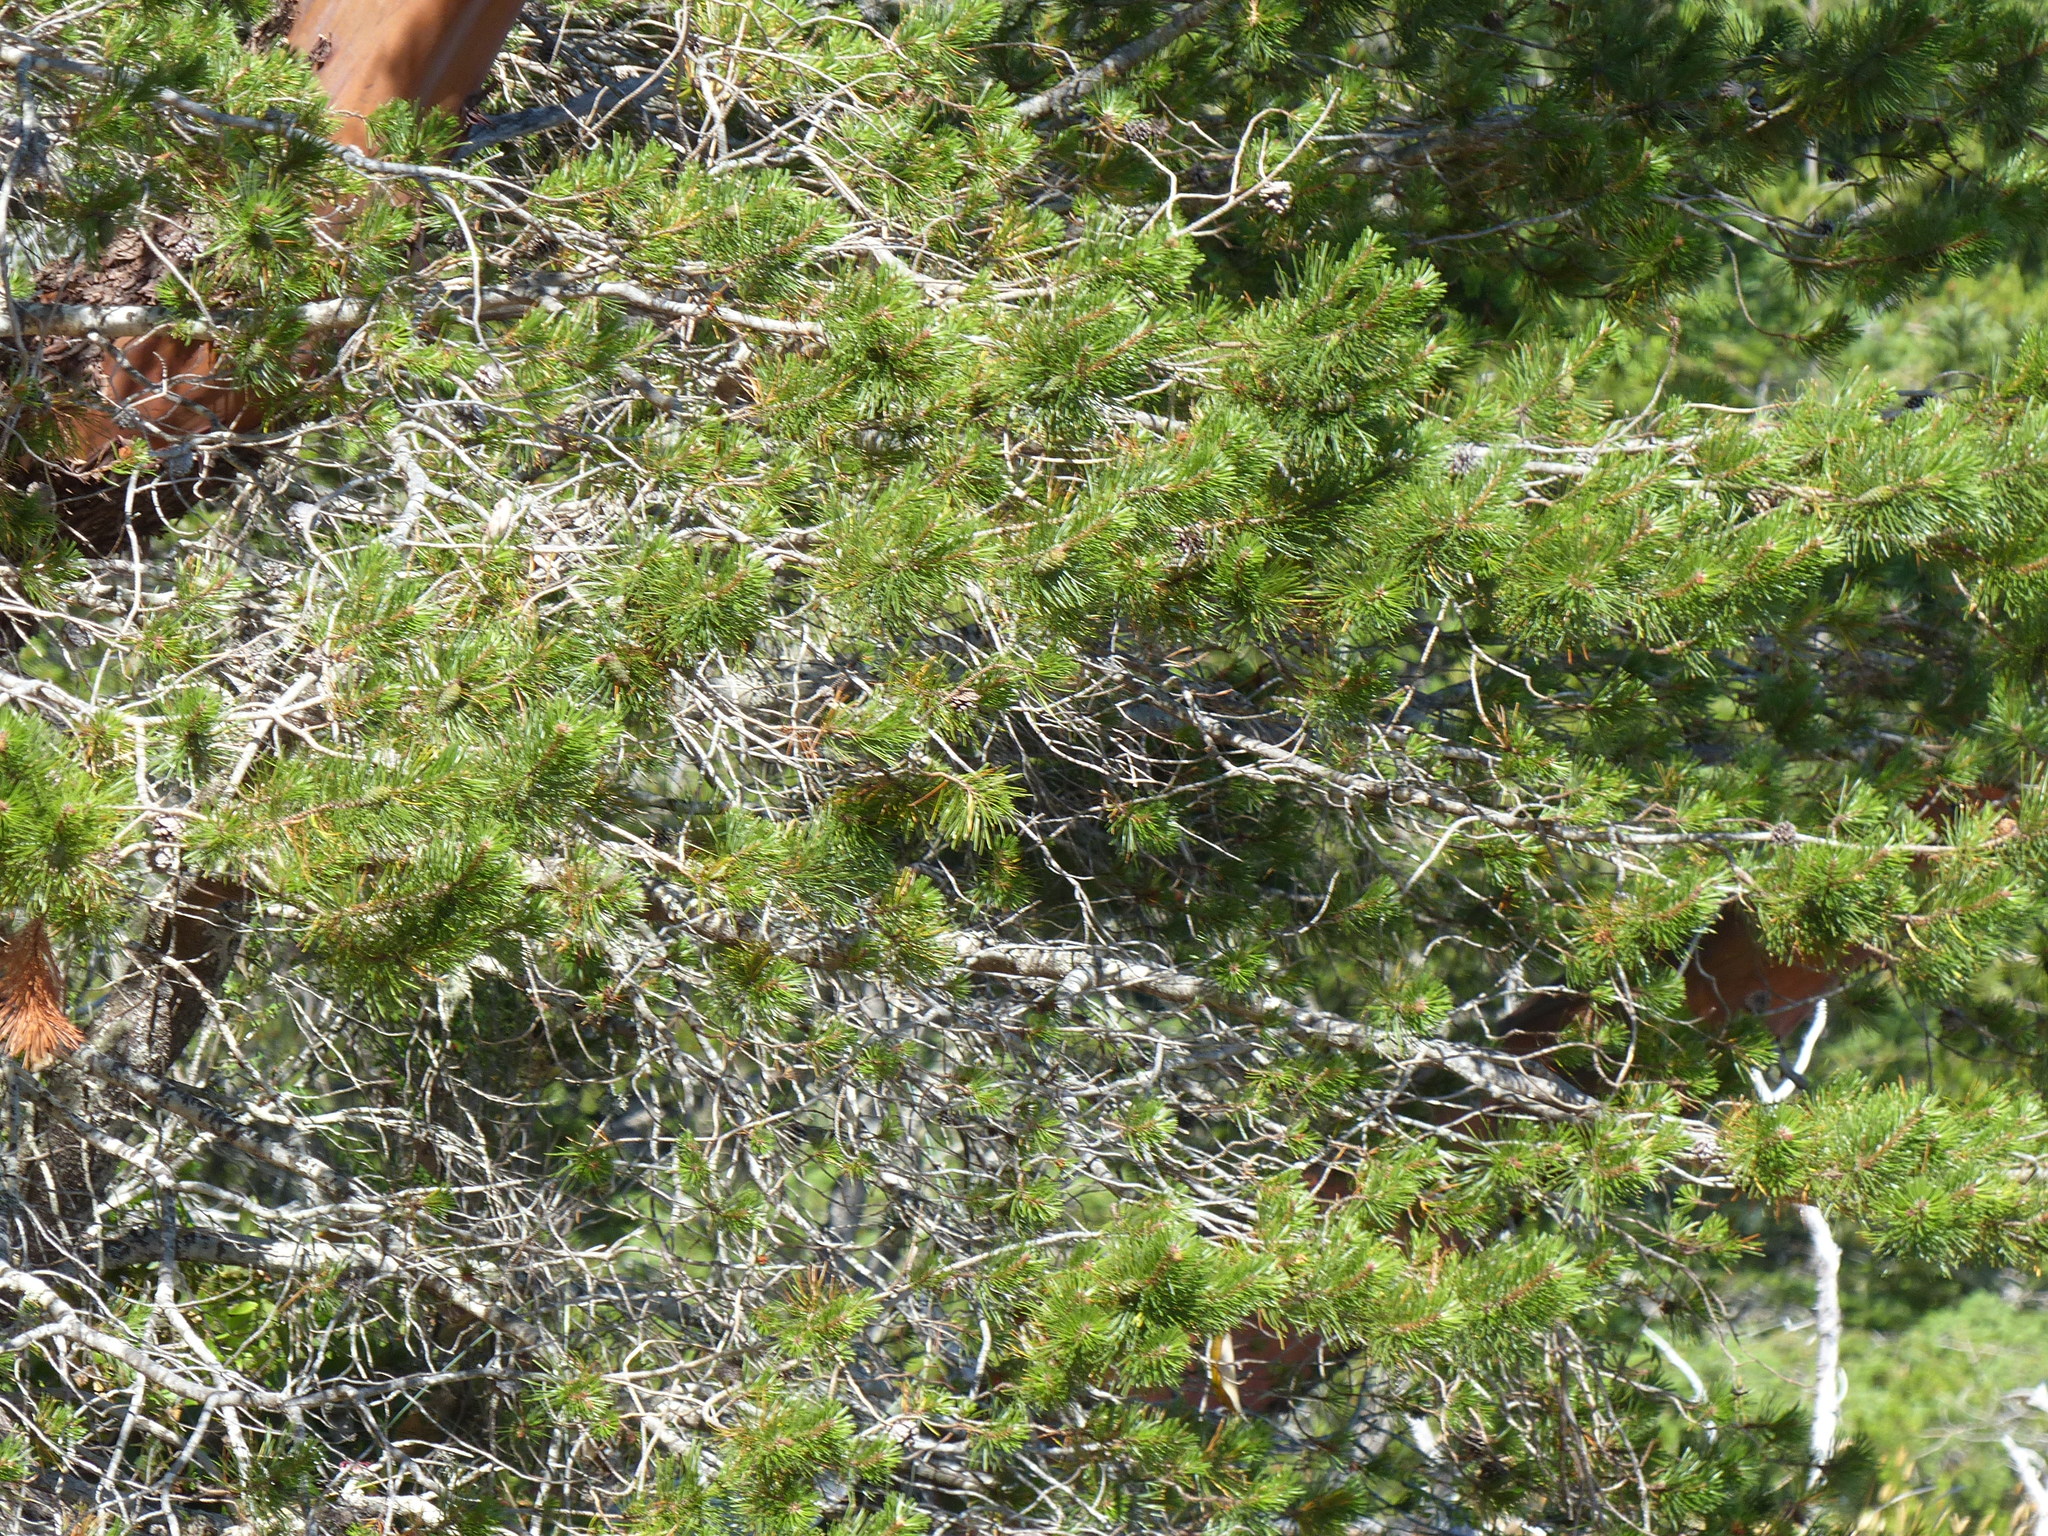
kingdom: Plantae
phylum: Tracheophyta
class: Pinopsida
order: Pinales
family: Pinaceae
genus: Pinus
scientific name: Pinus contorta
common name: Lodgepole pine
